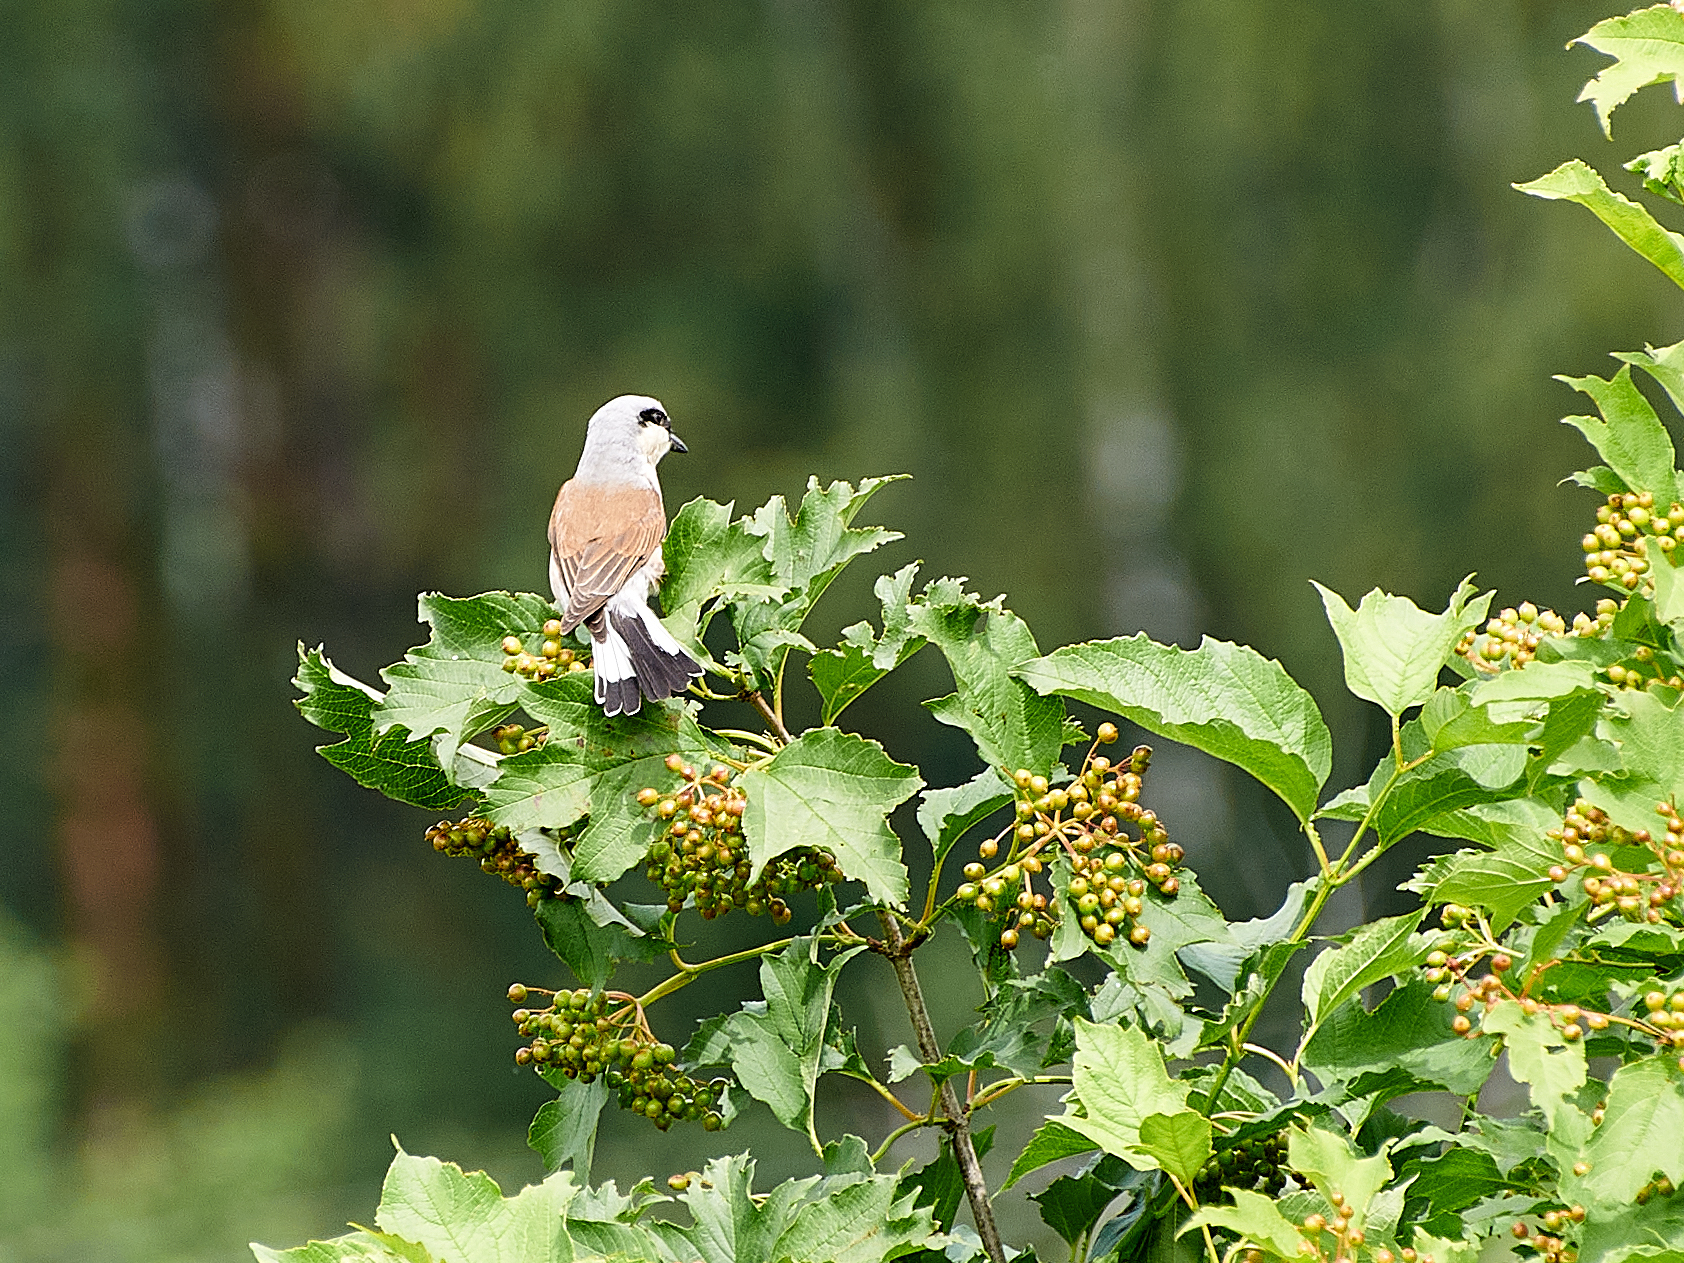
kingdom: Animalia
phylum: Chordata
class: Aves
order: Passeriformes
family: Laniidae
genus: Lanius
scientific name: Lanius collurio
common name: Red-backed shrike
